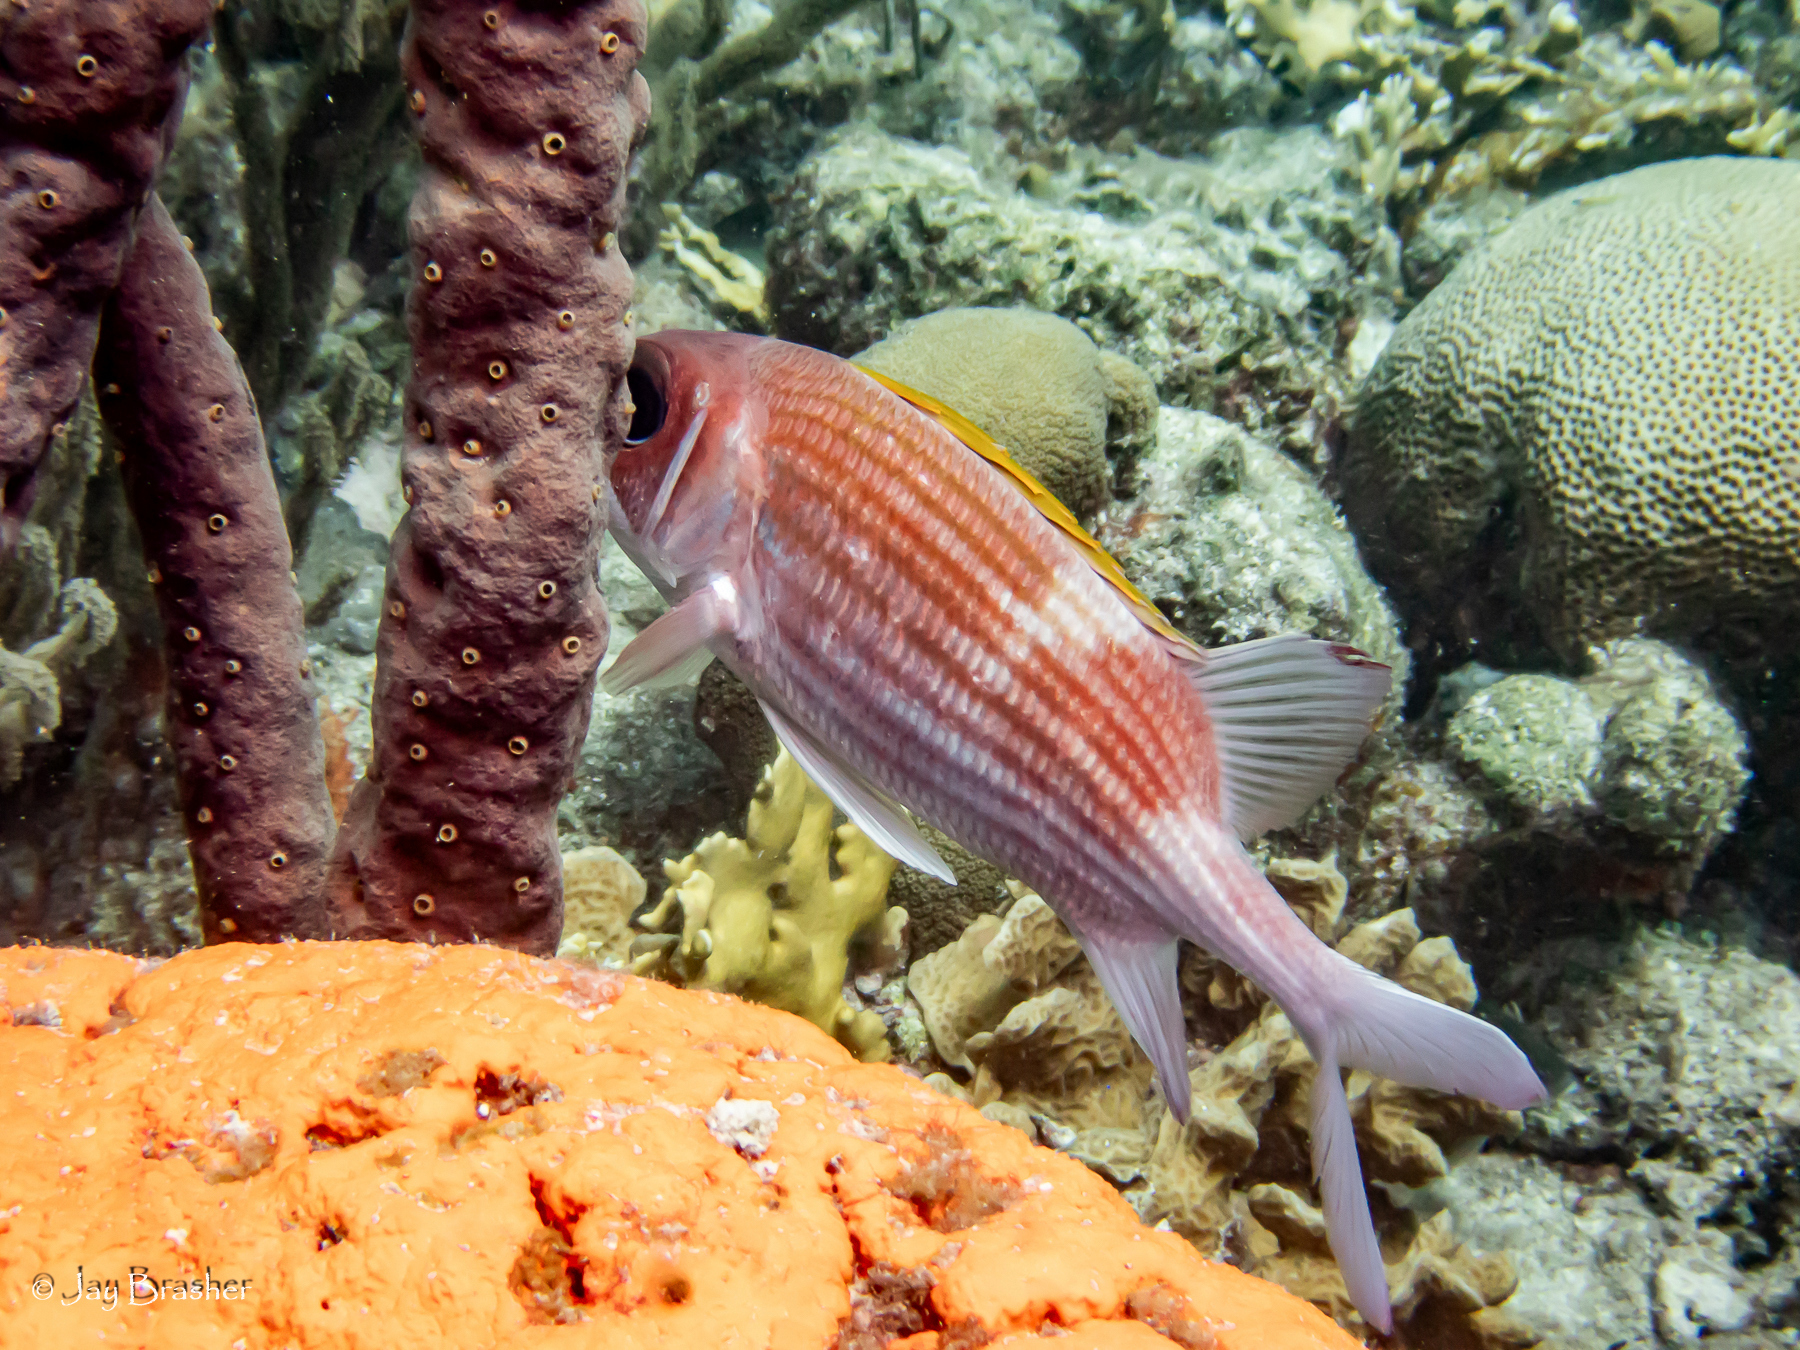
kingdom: Animalia
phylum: Chordata
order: Beryciformes
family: Holocentridae
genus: Holocentrus
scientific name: Holocentrus adscensionis
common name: Squirrelfish
